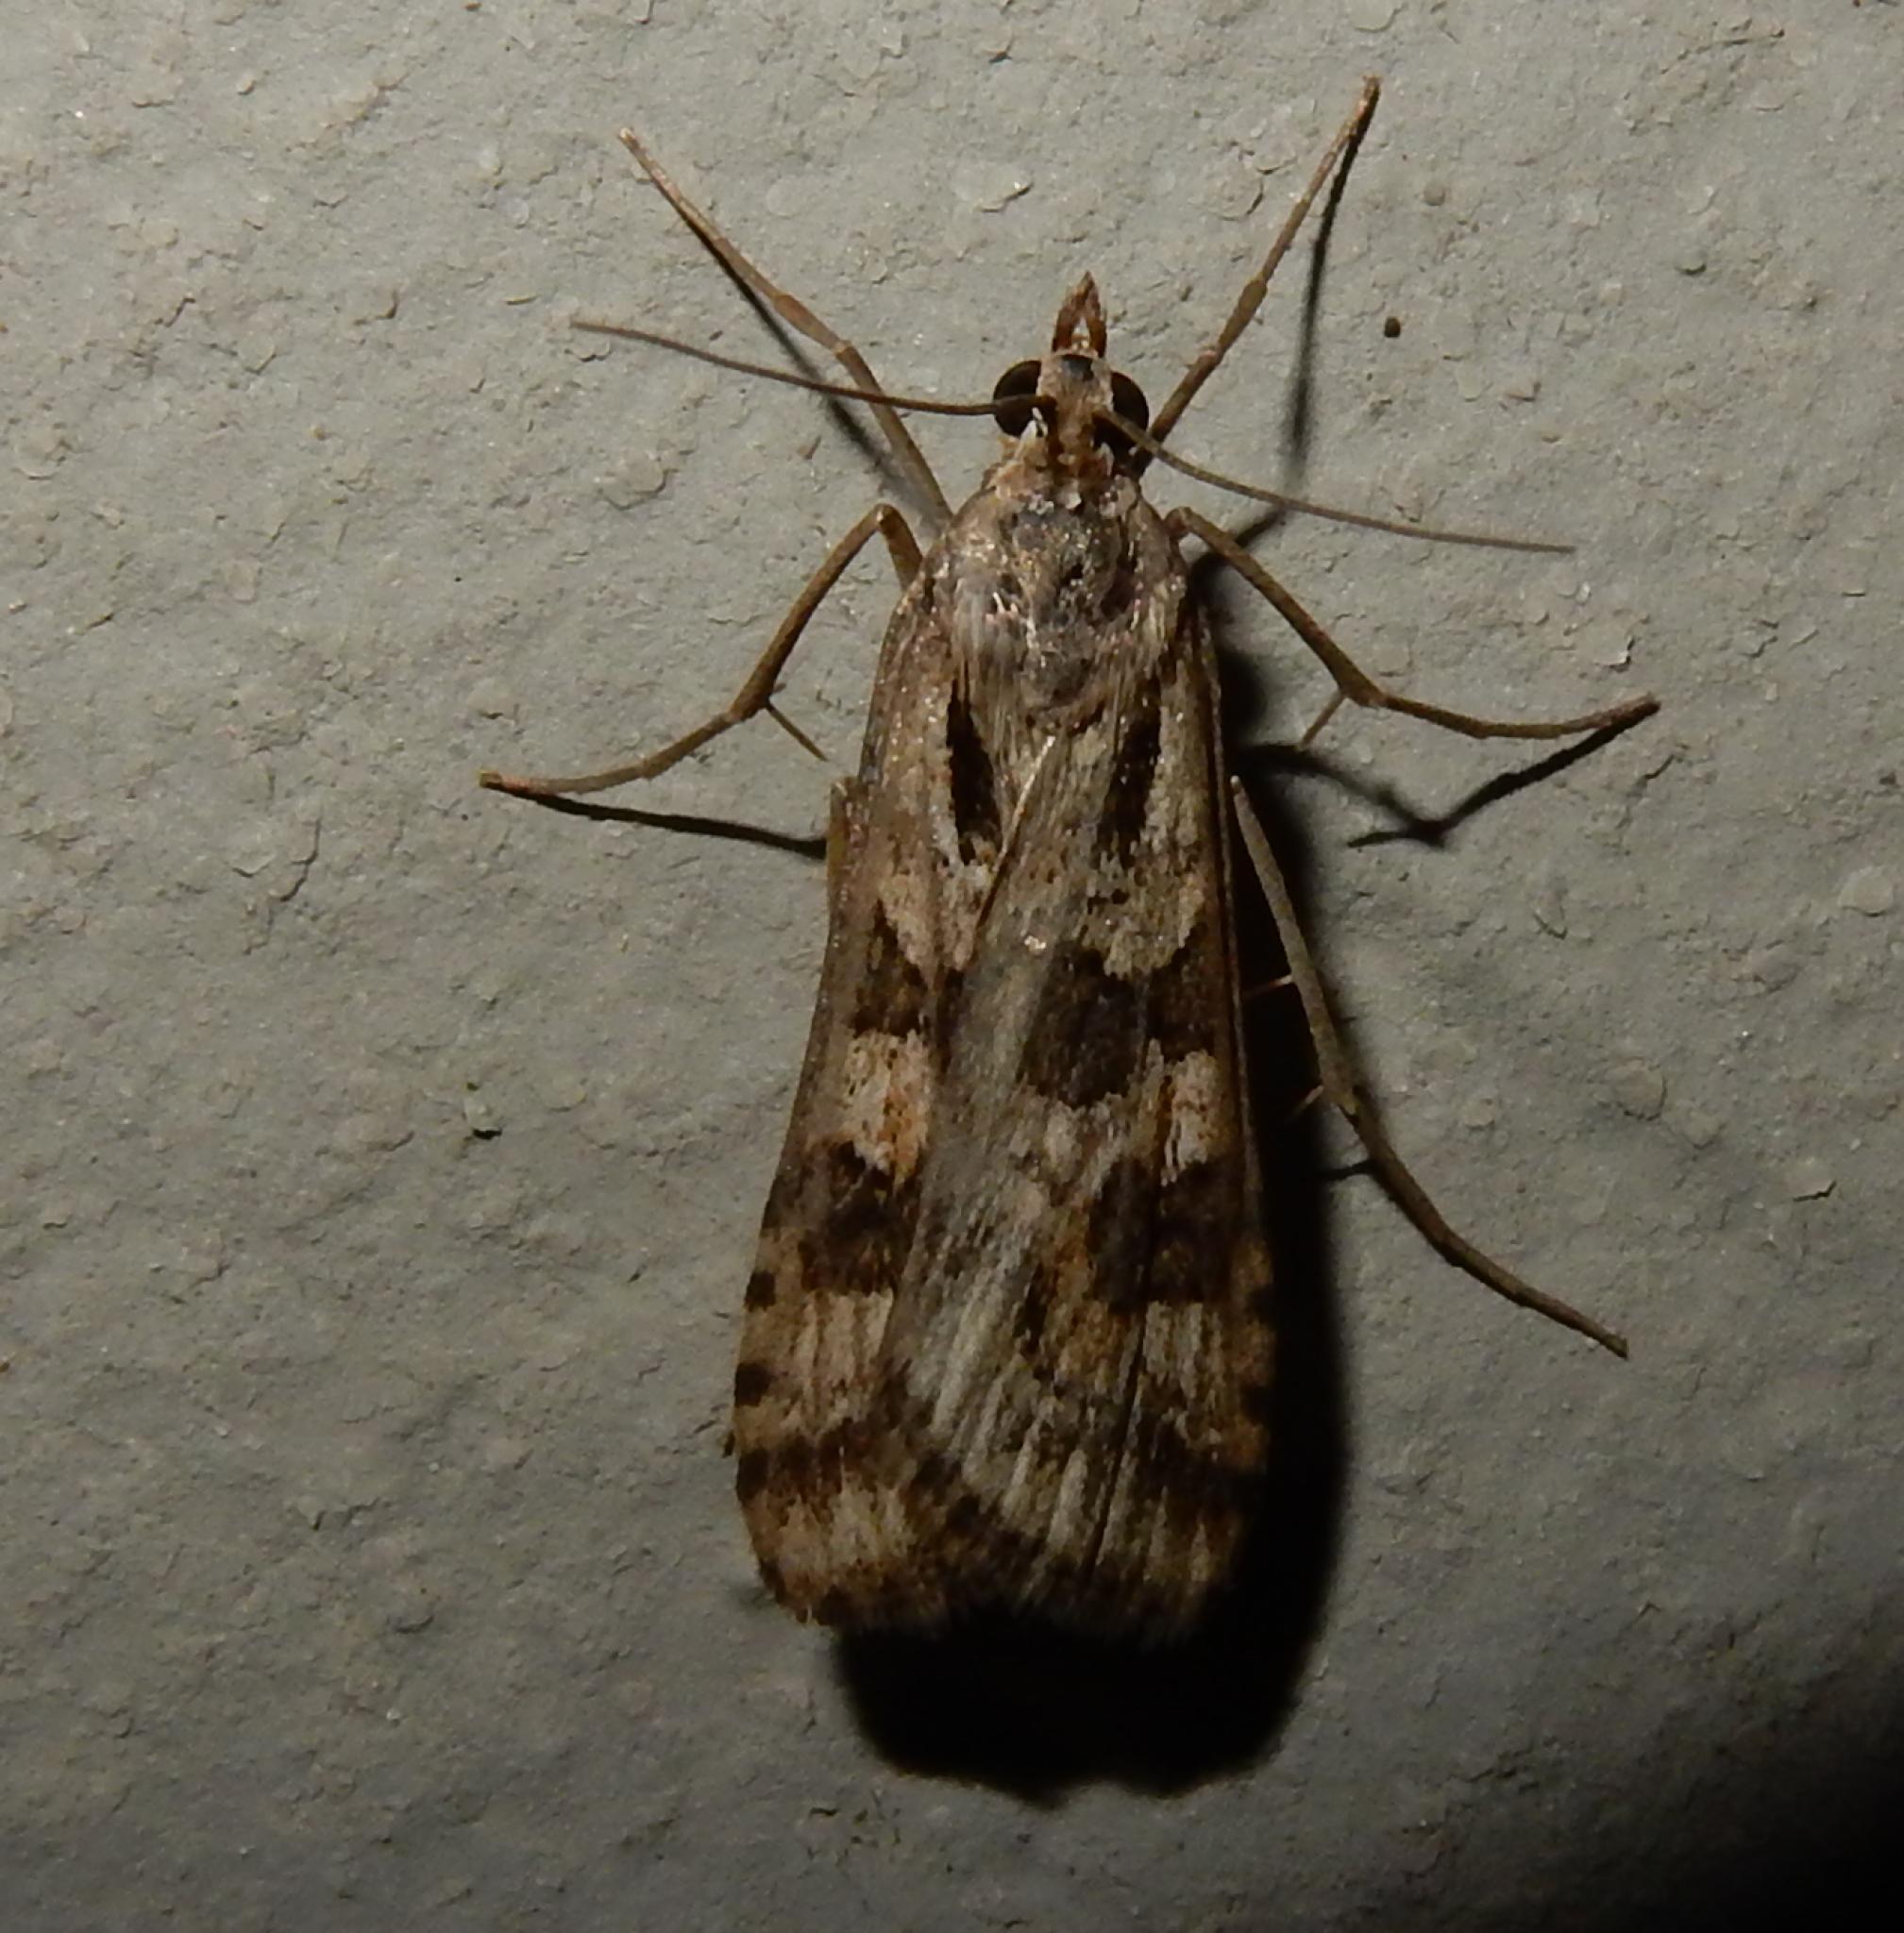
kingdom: Animalia
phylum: Arthropoda
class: Insecta
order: Lepidoptera
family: Crambidae
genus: Nomophila
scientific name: Nomophila noctuella
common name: Rush veneer
